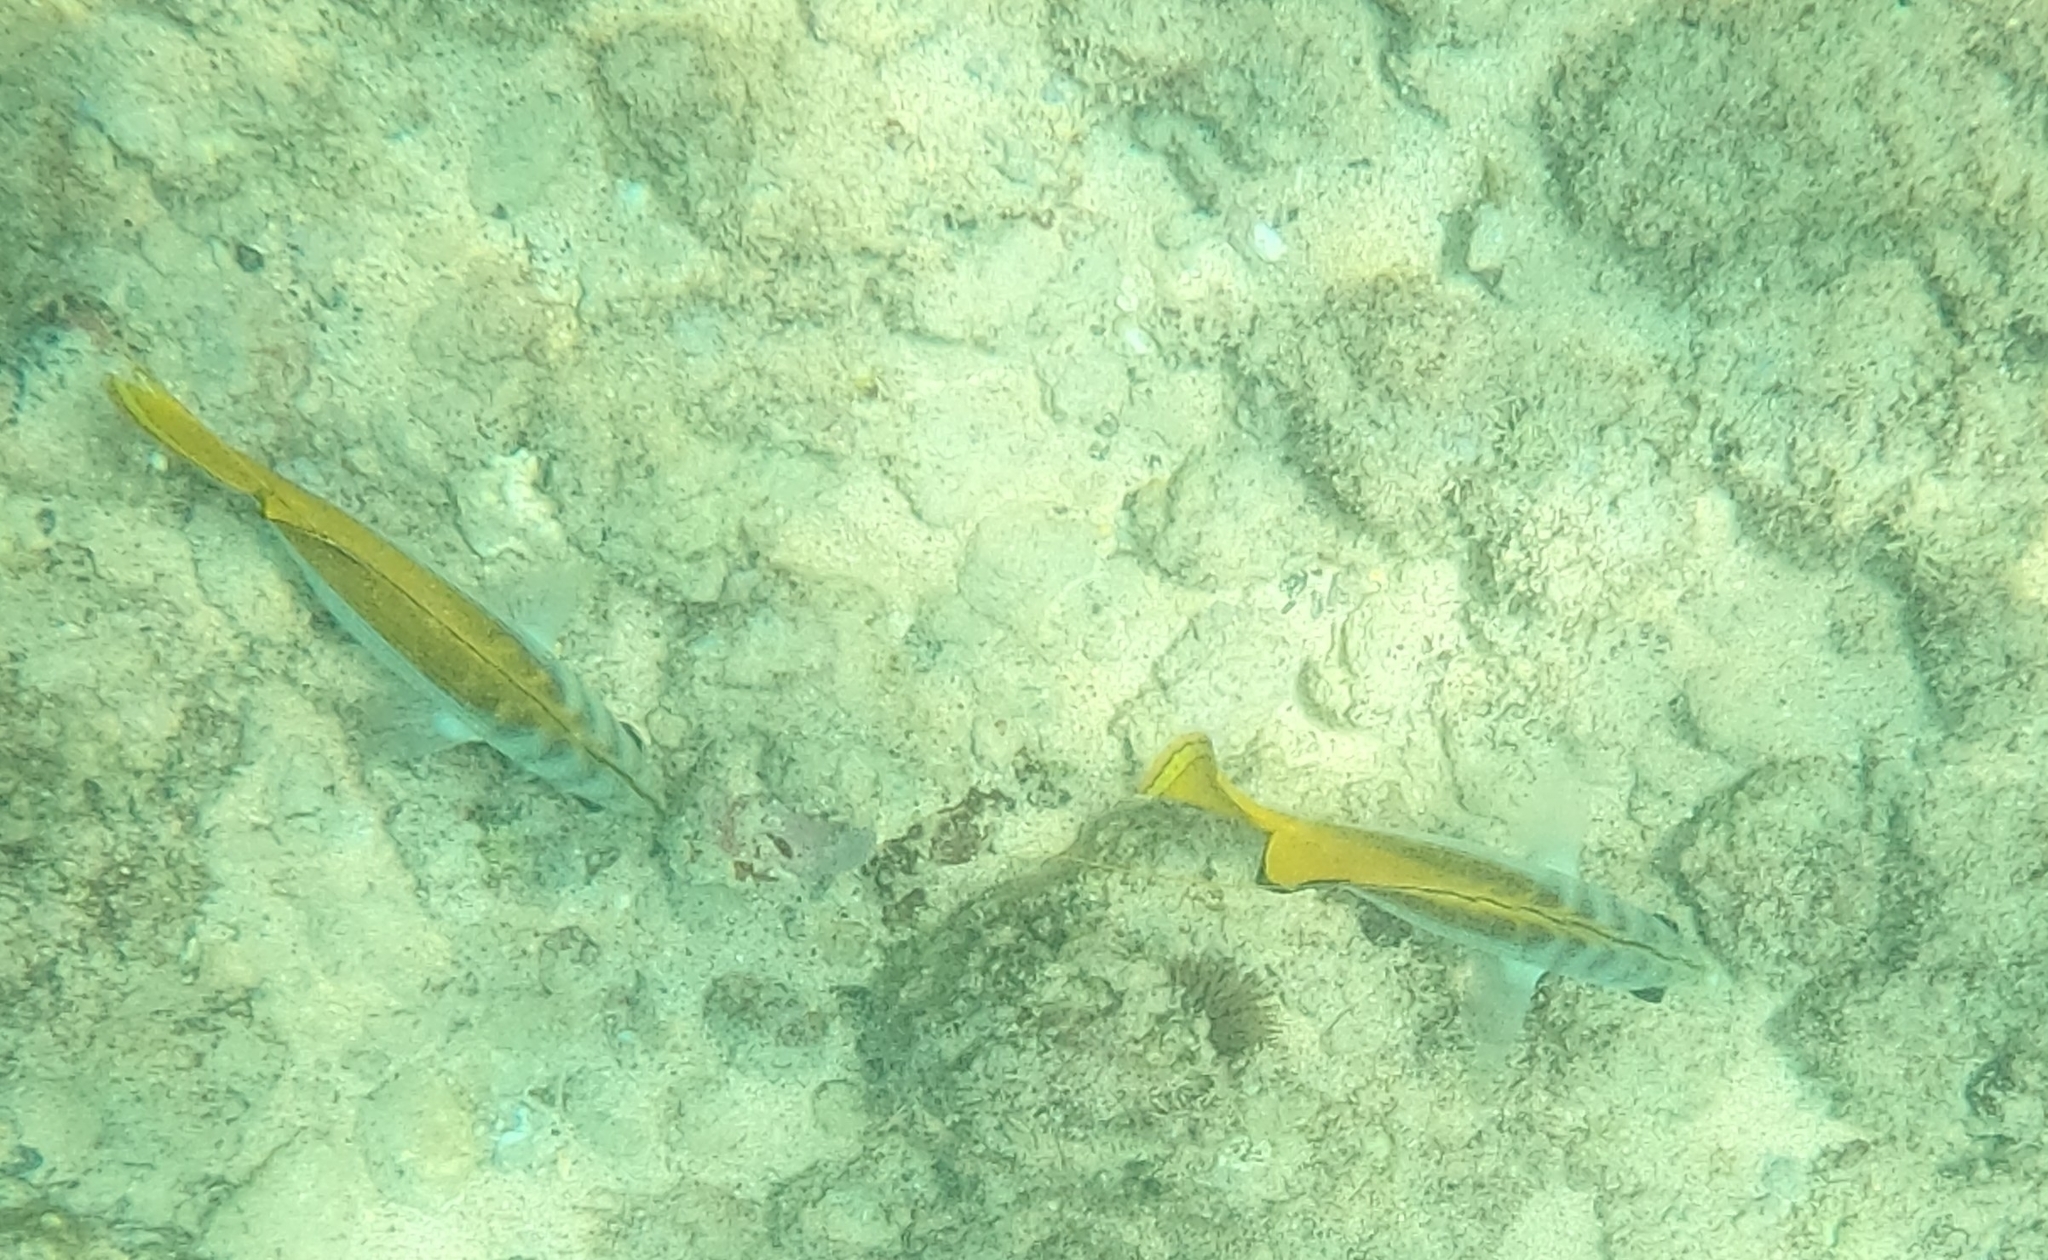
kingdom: Animalia
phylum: Chordata
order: Perciformes
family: Chaetodontidae
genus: Chaetodon
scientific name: Chaetodon auriga
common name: Threadfin butterflyfish
